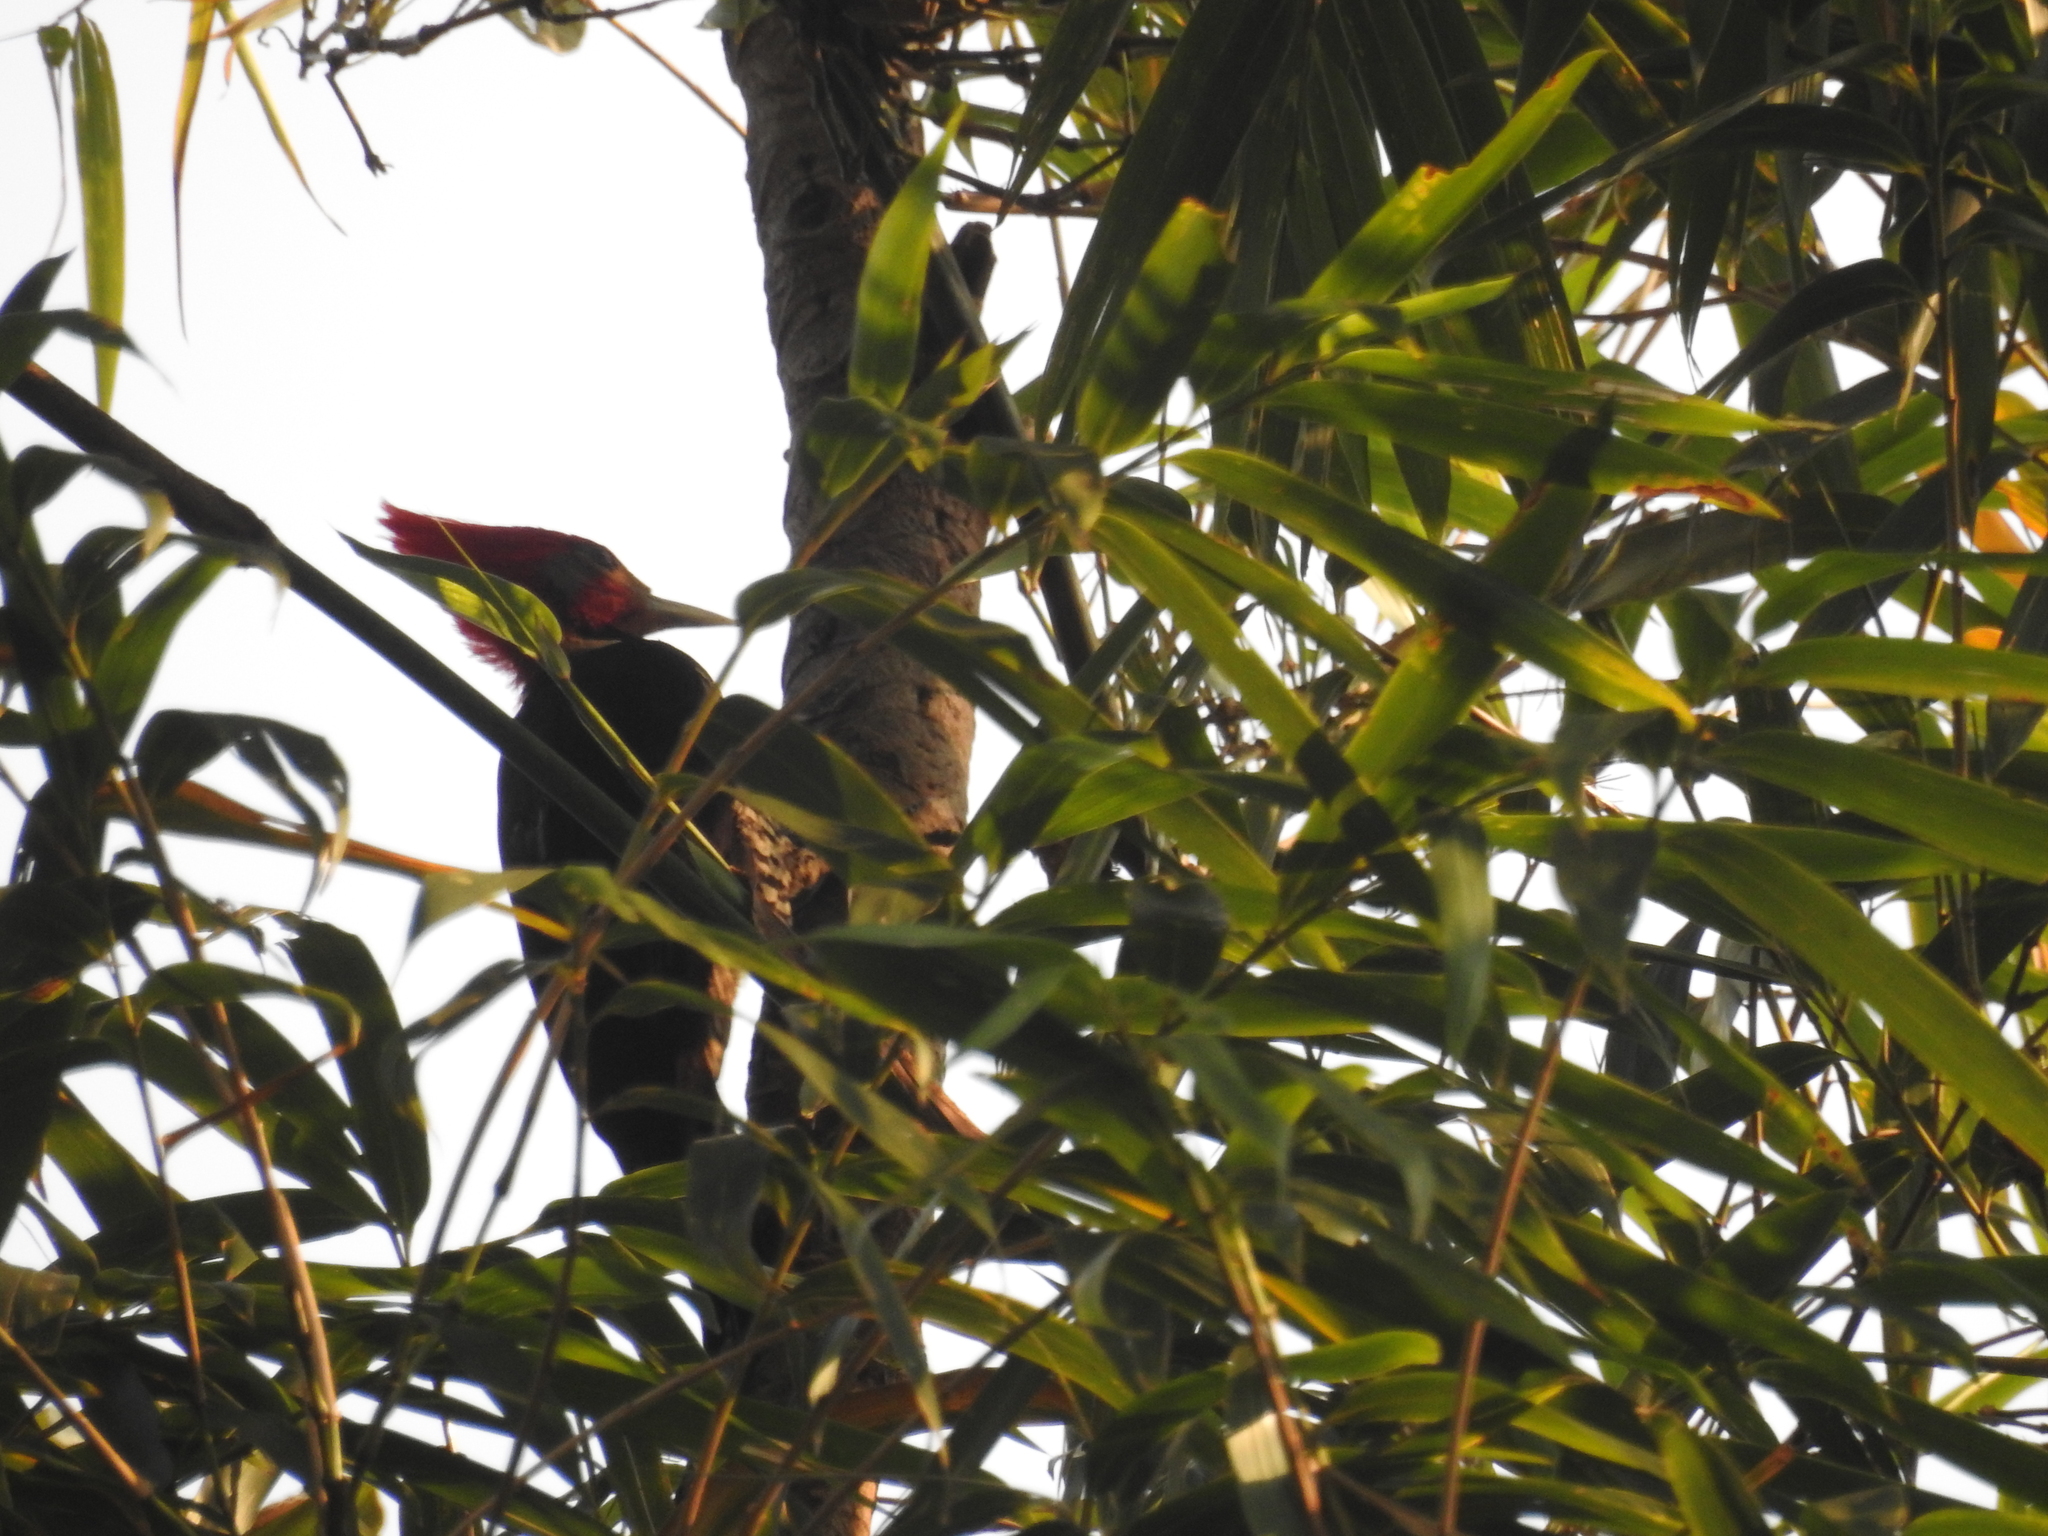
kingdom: Animalia
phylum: Chordata
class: Aves
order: Piciformes
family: Picidae
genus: Celeus
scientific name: Celeus galeatus
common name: Helmeted woodpecker
